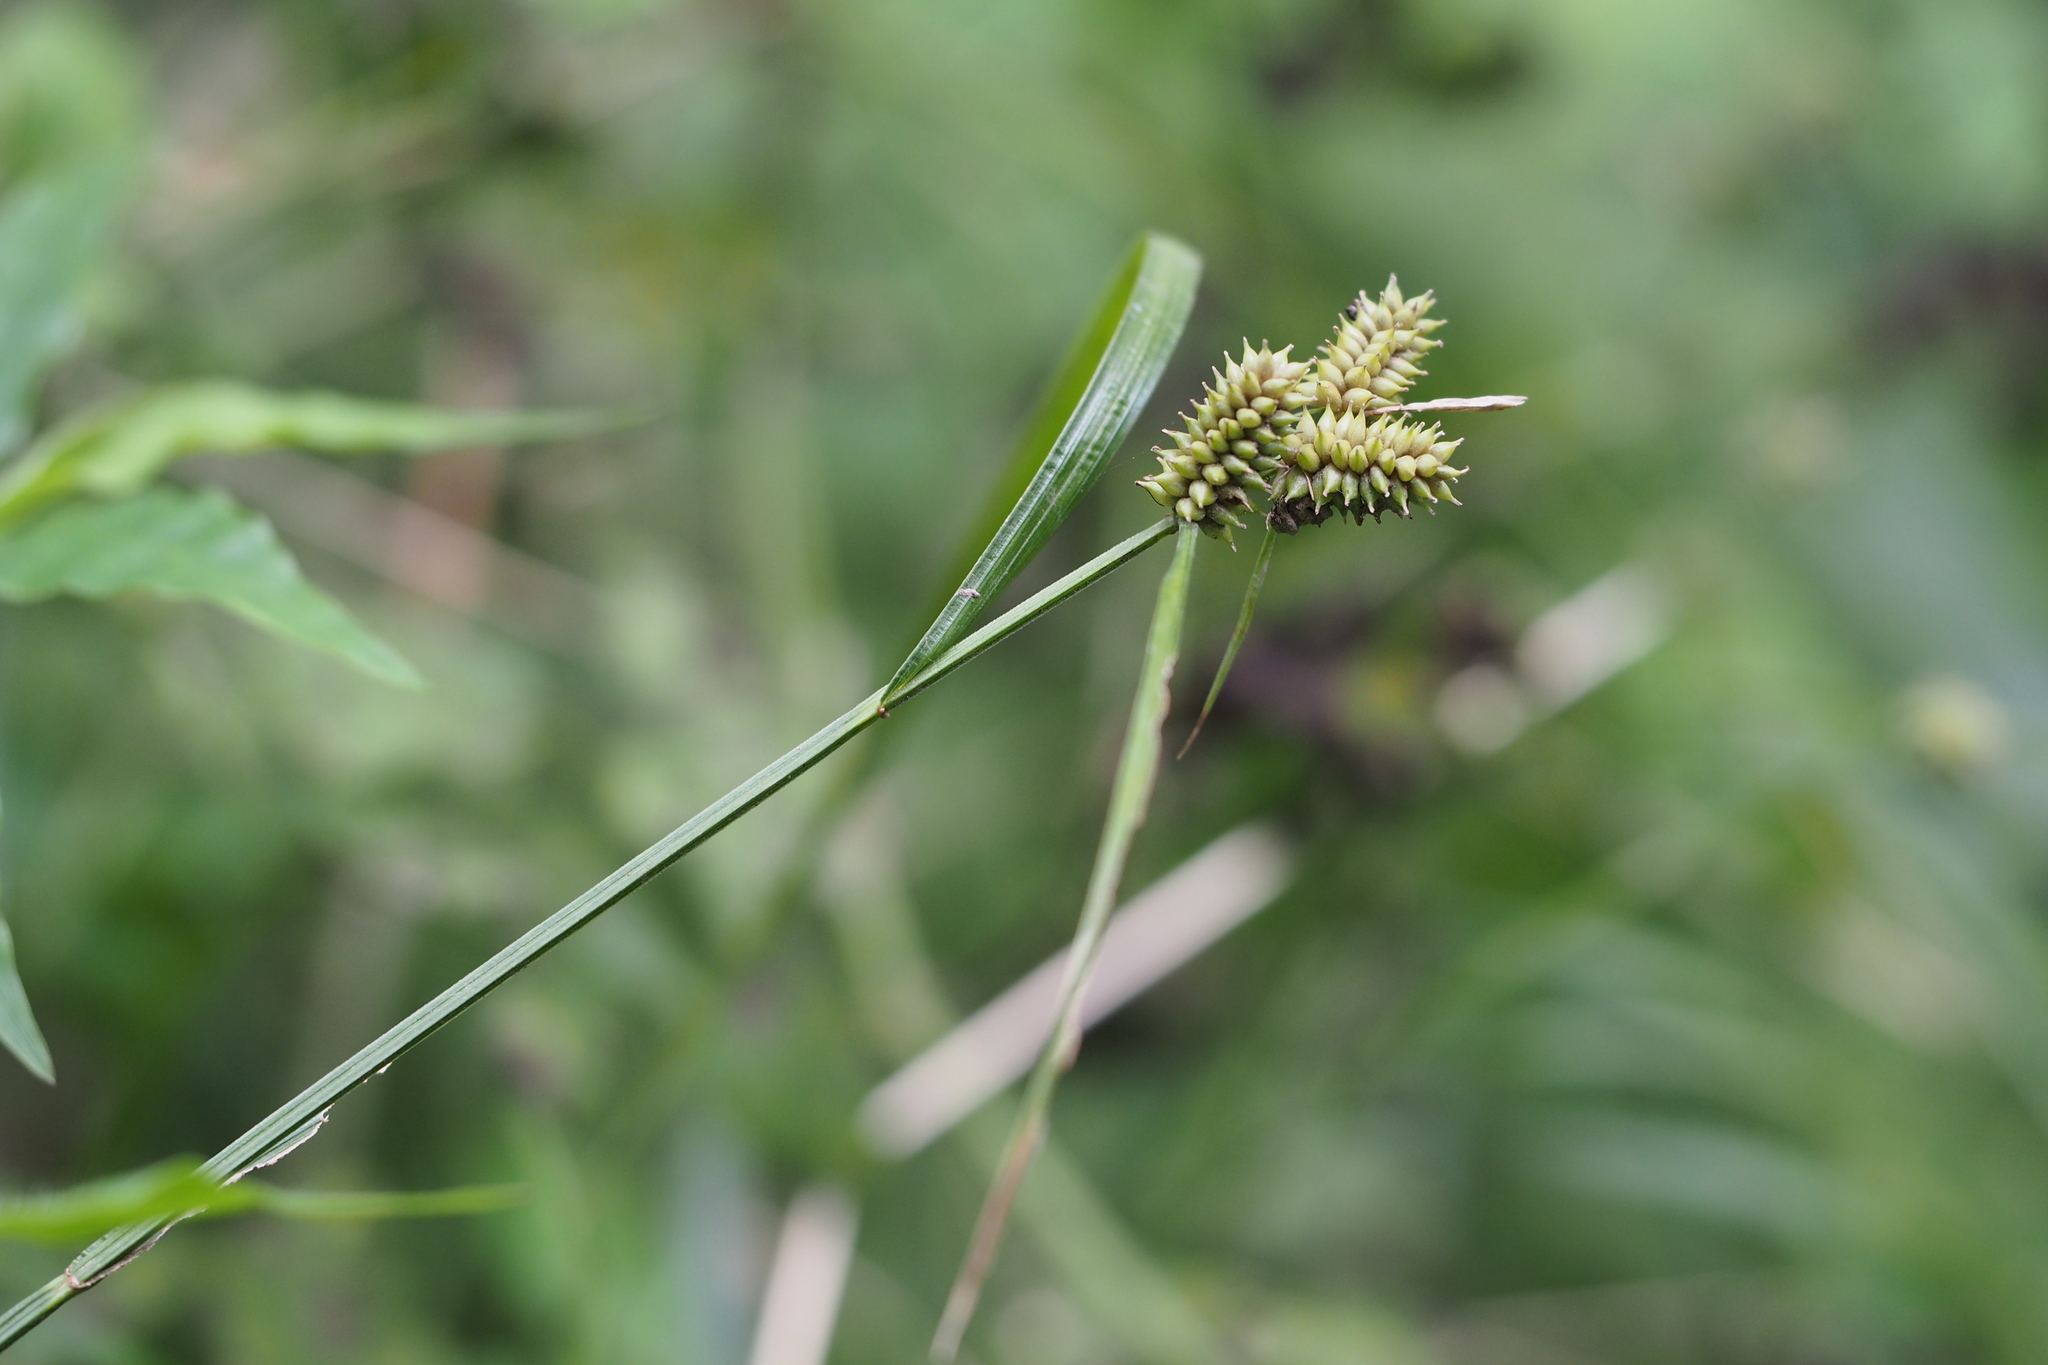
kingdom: Plantae
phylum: Tracheophyta
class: Liliopsida
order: Poales
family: Cyperaceae
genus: Carex
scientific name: Carex aphanolepis
